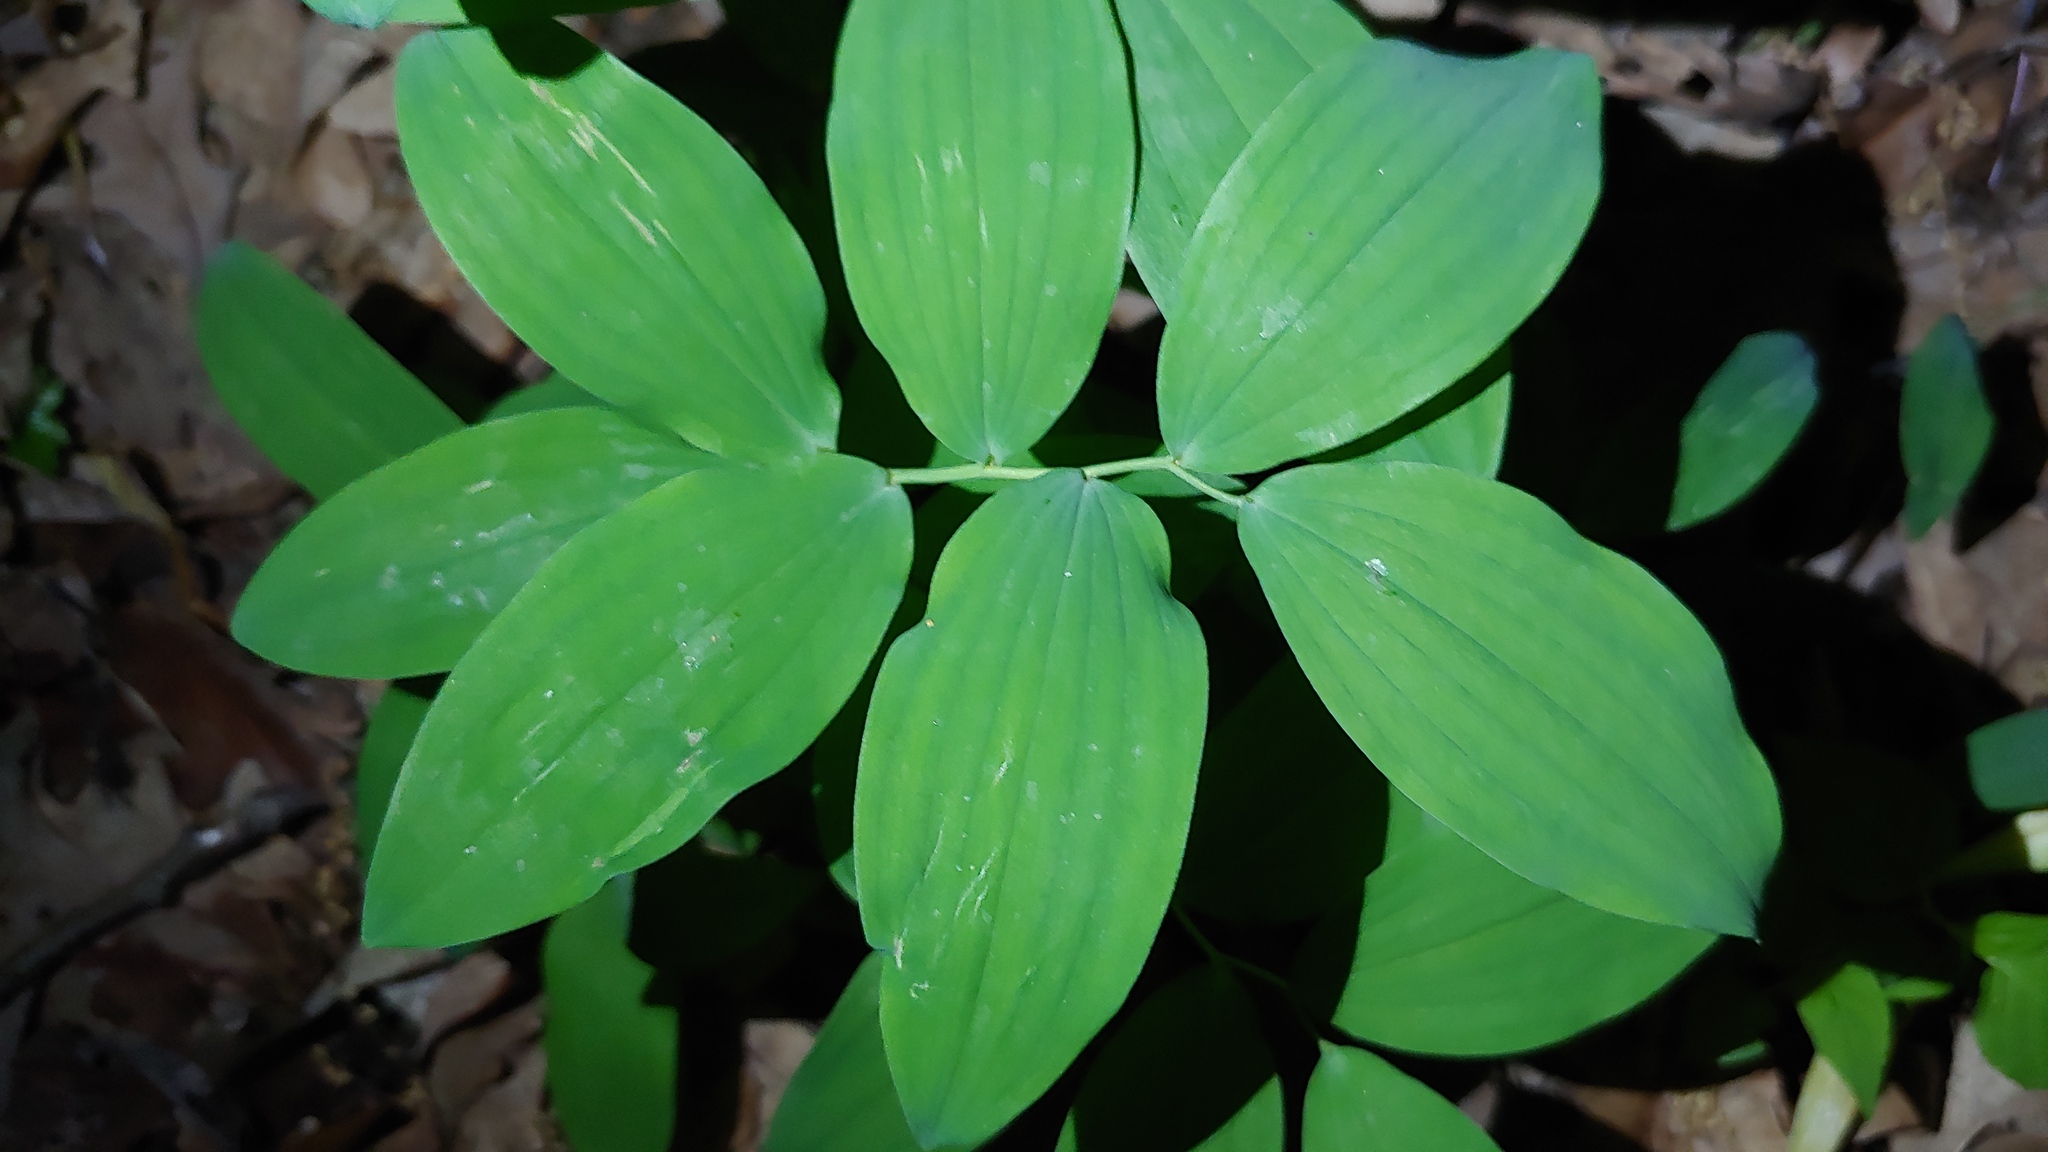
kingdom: Plantae
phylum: Tracheophyta
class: Liliopsida
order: Asparagales
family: Asparagaceae
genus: Polygonatum
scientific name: Polygonatum pubescens
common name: Downy solomon's seal
